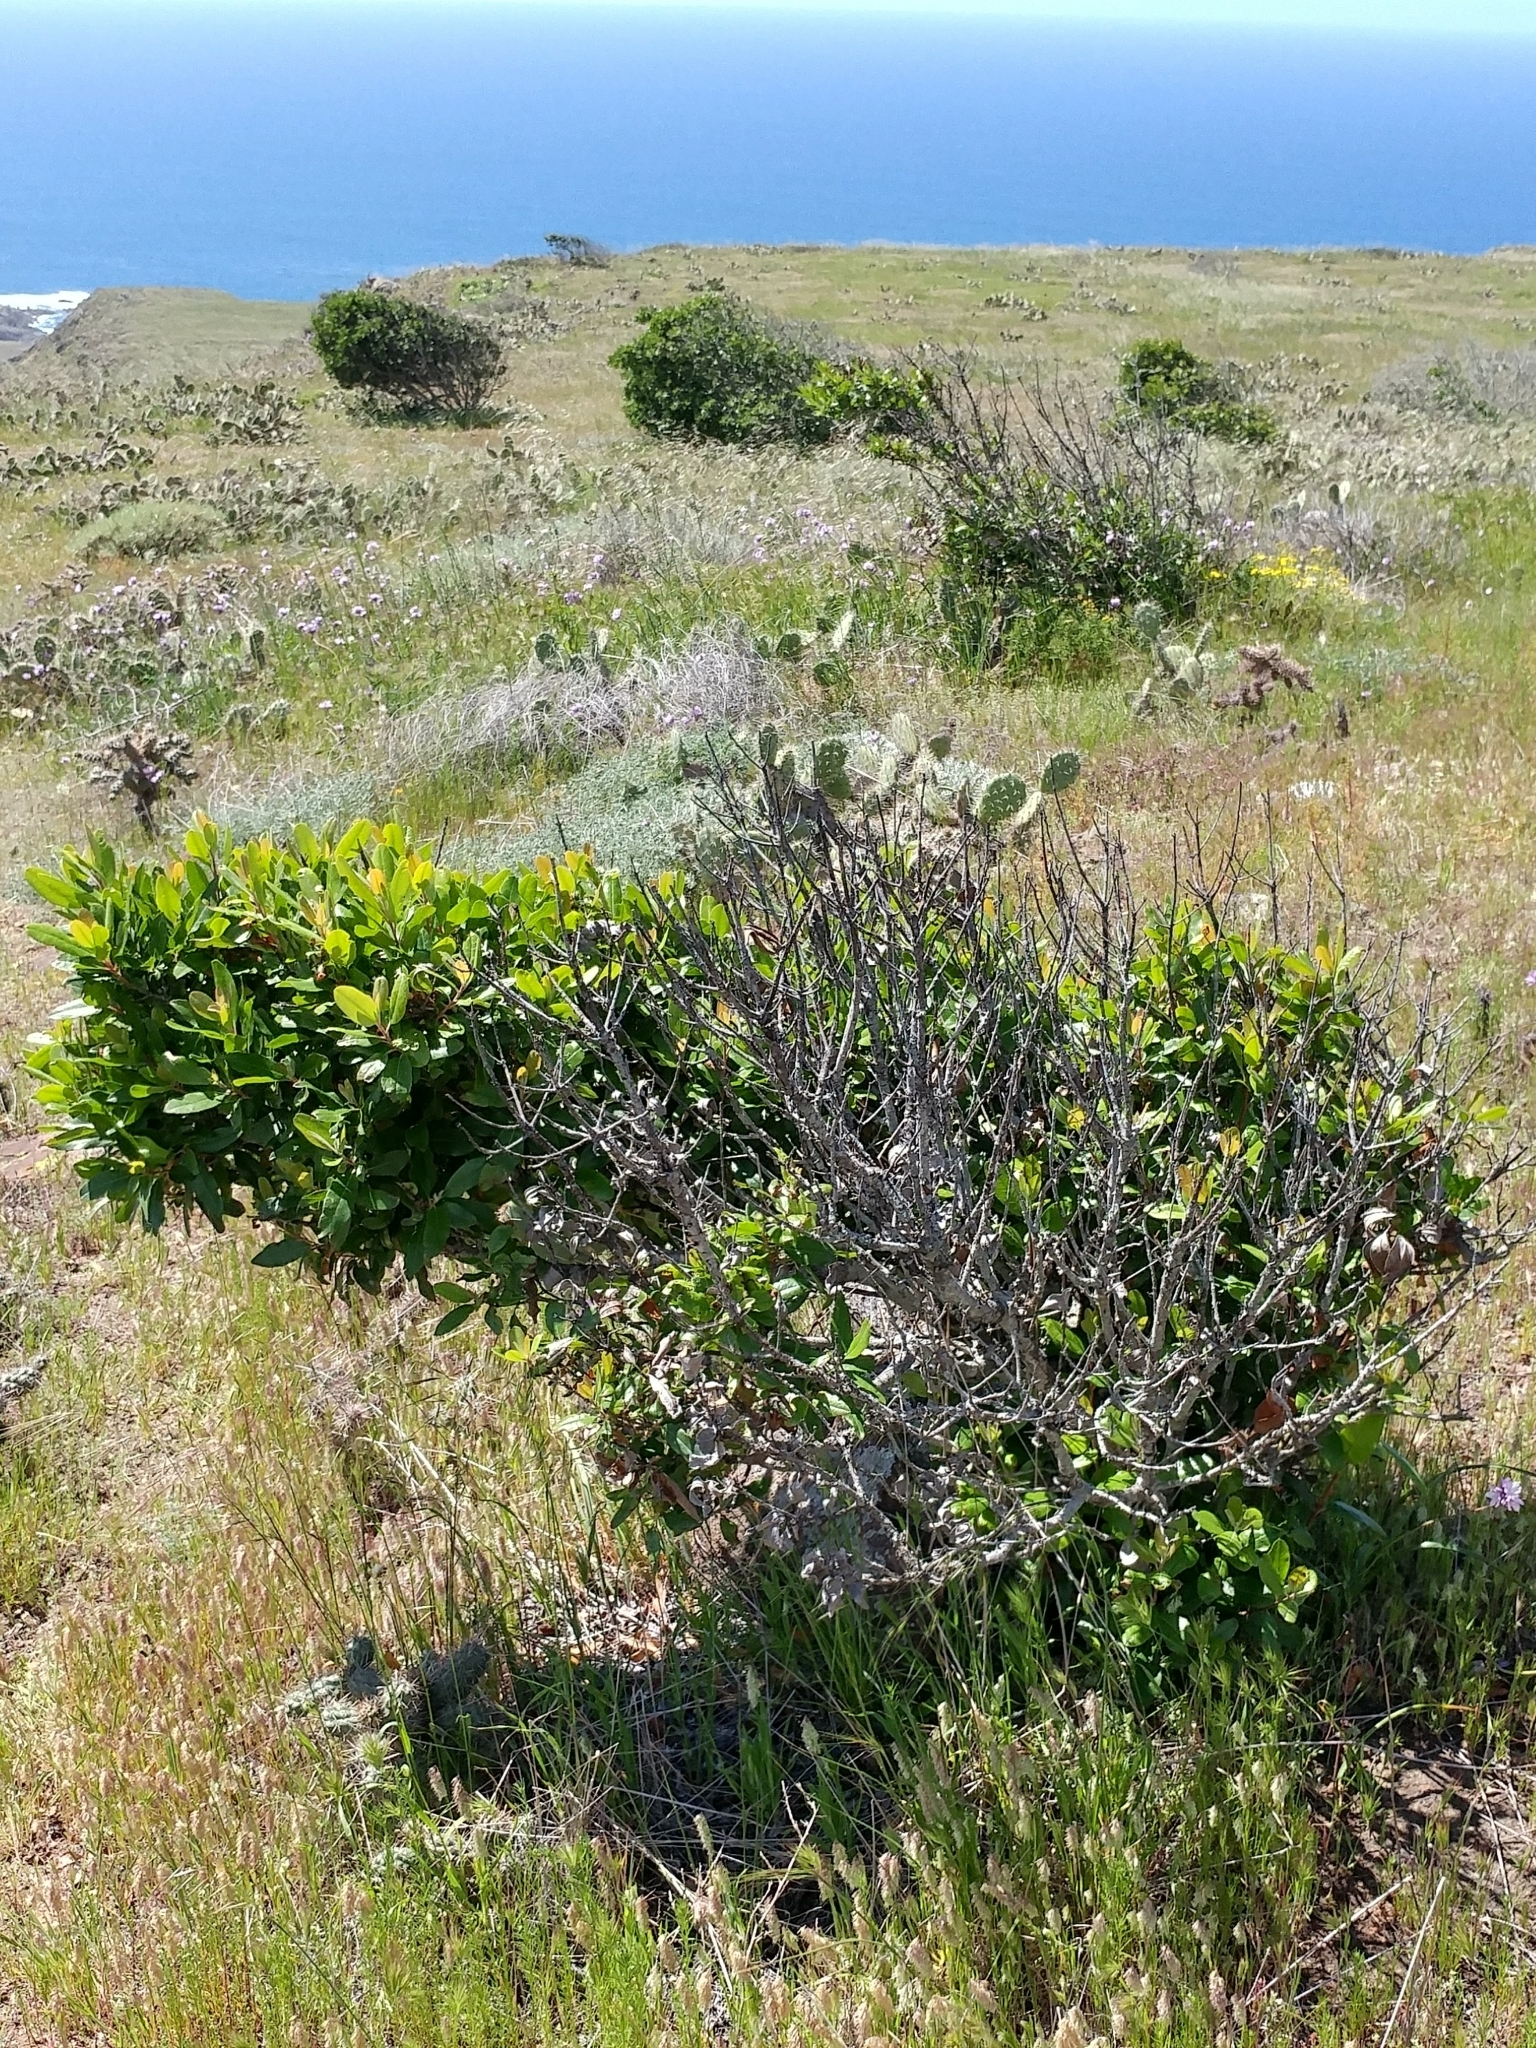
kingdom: Plantae
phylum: Tracheophyta
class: Magnoliopsida
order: Rosales
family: Rosaceae
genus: Heteromeles
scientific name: Heteromeles arbutifolia
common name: California-holly
